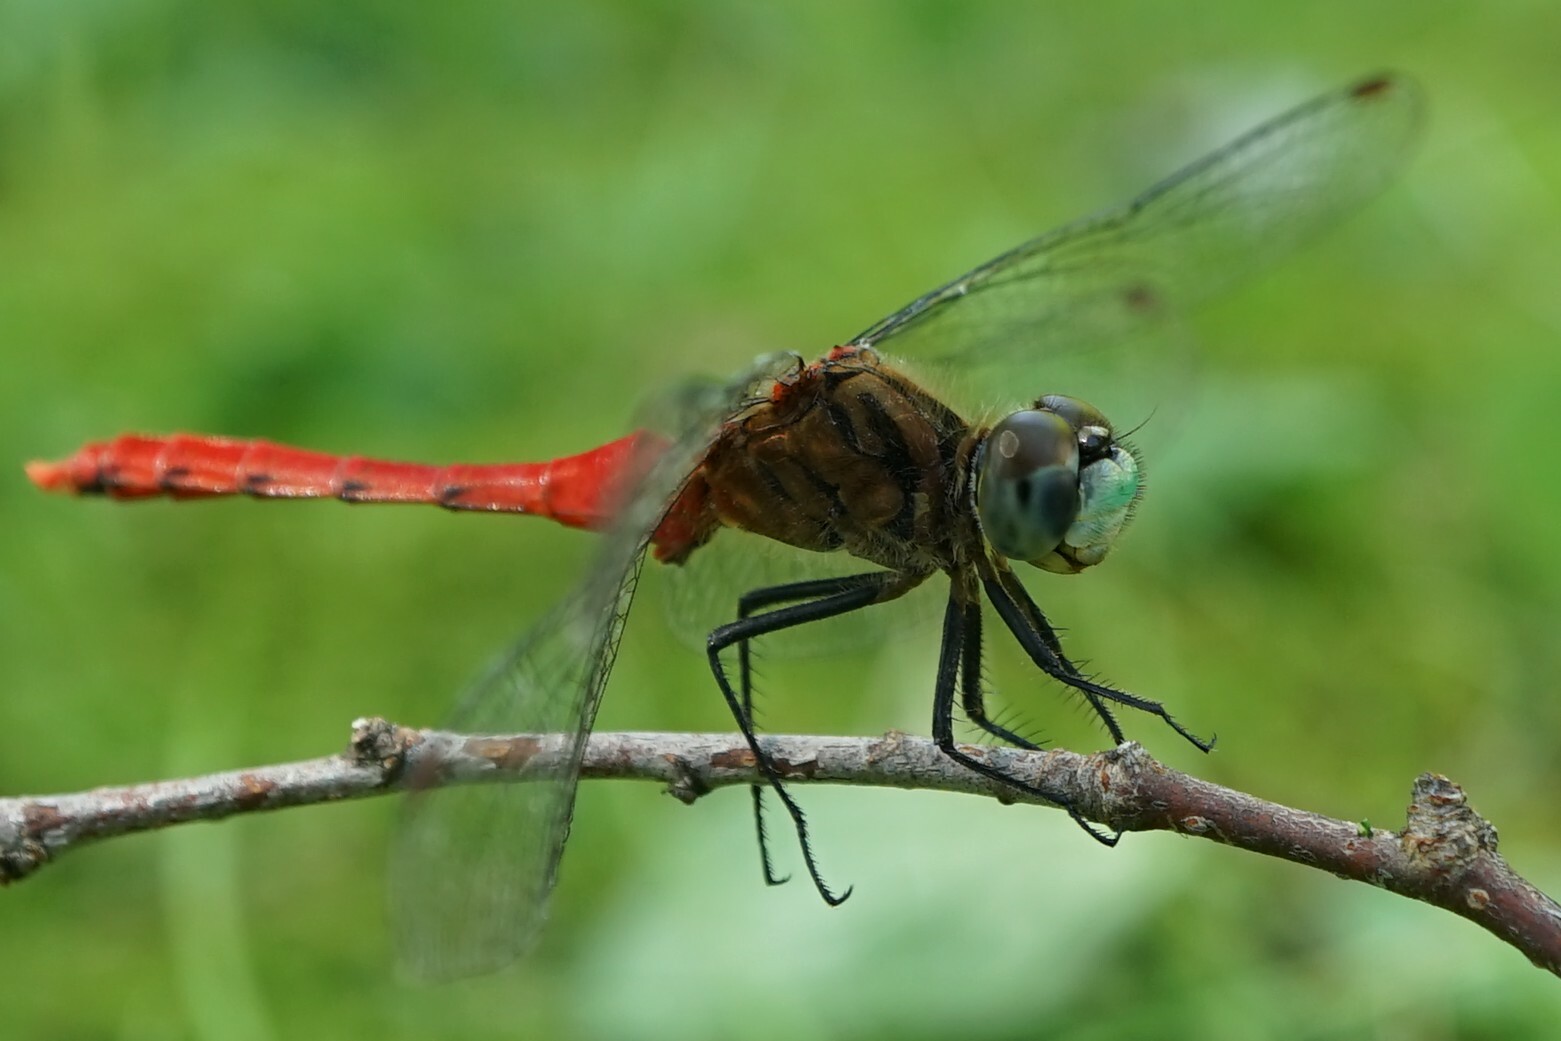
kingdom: Animalia
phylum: Arthropoda
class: Insecta
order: Odonata
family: Libellulidae
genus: Sympetrum
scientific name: Sympetrum kunckeli
